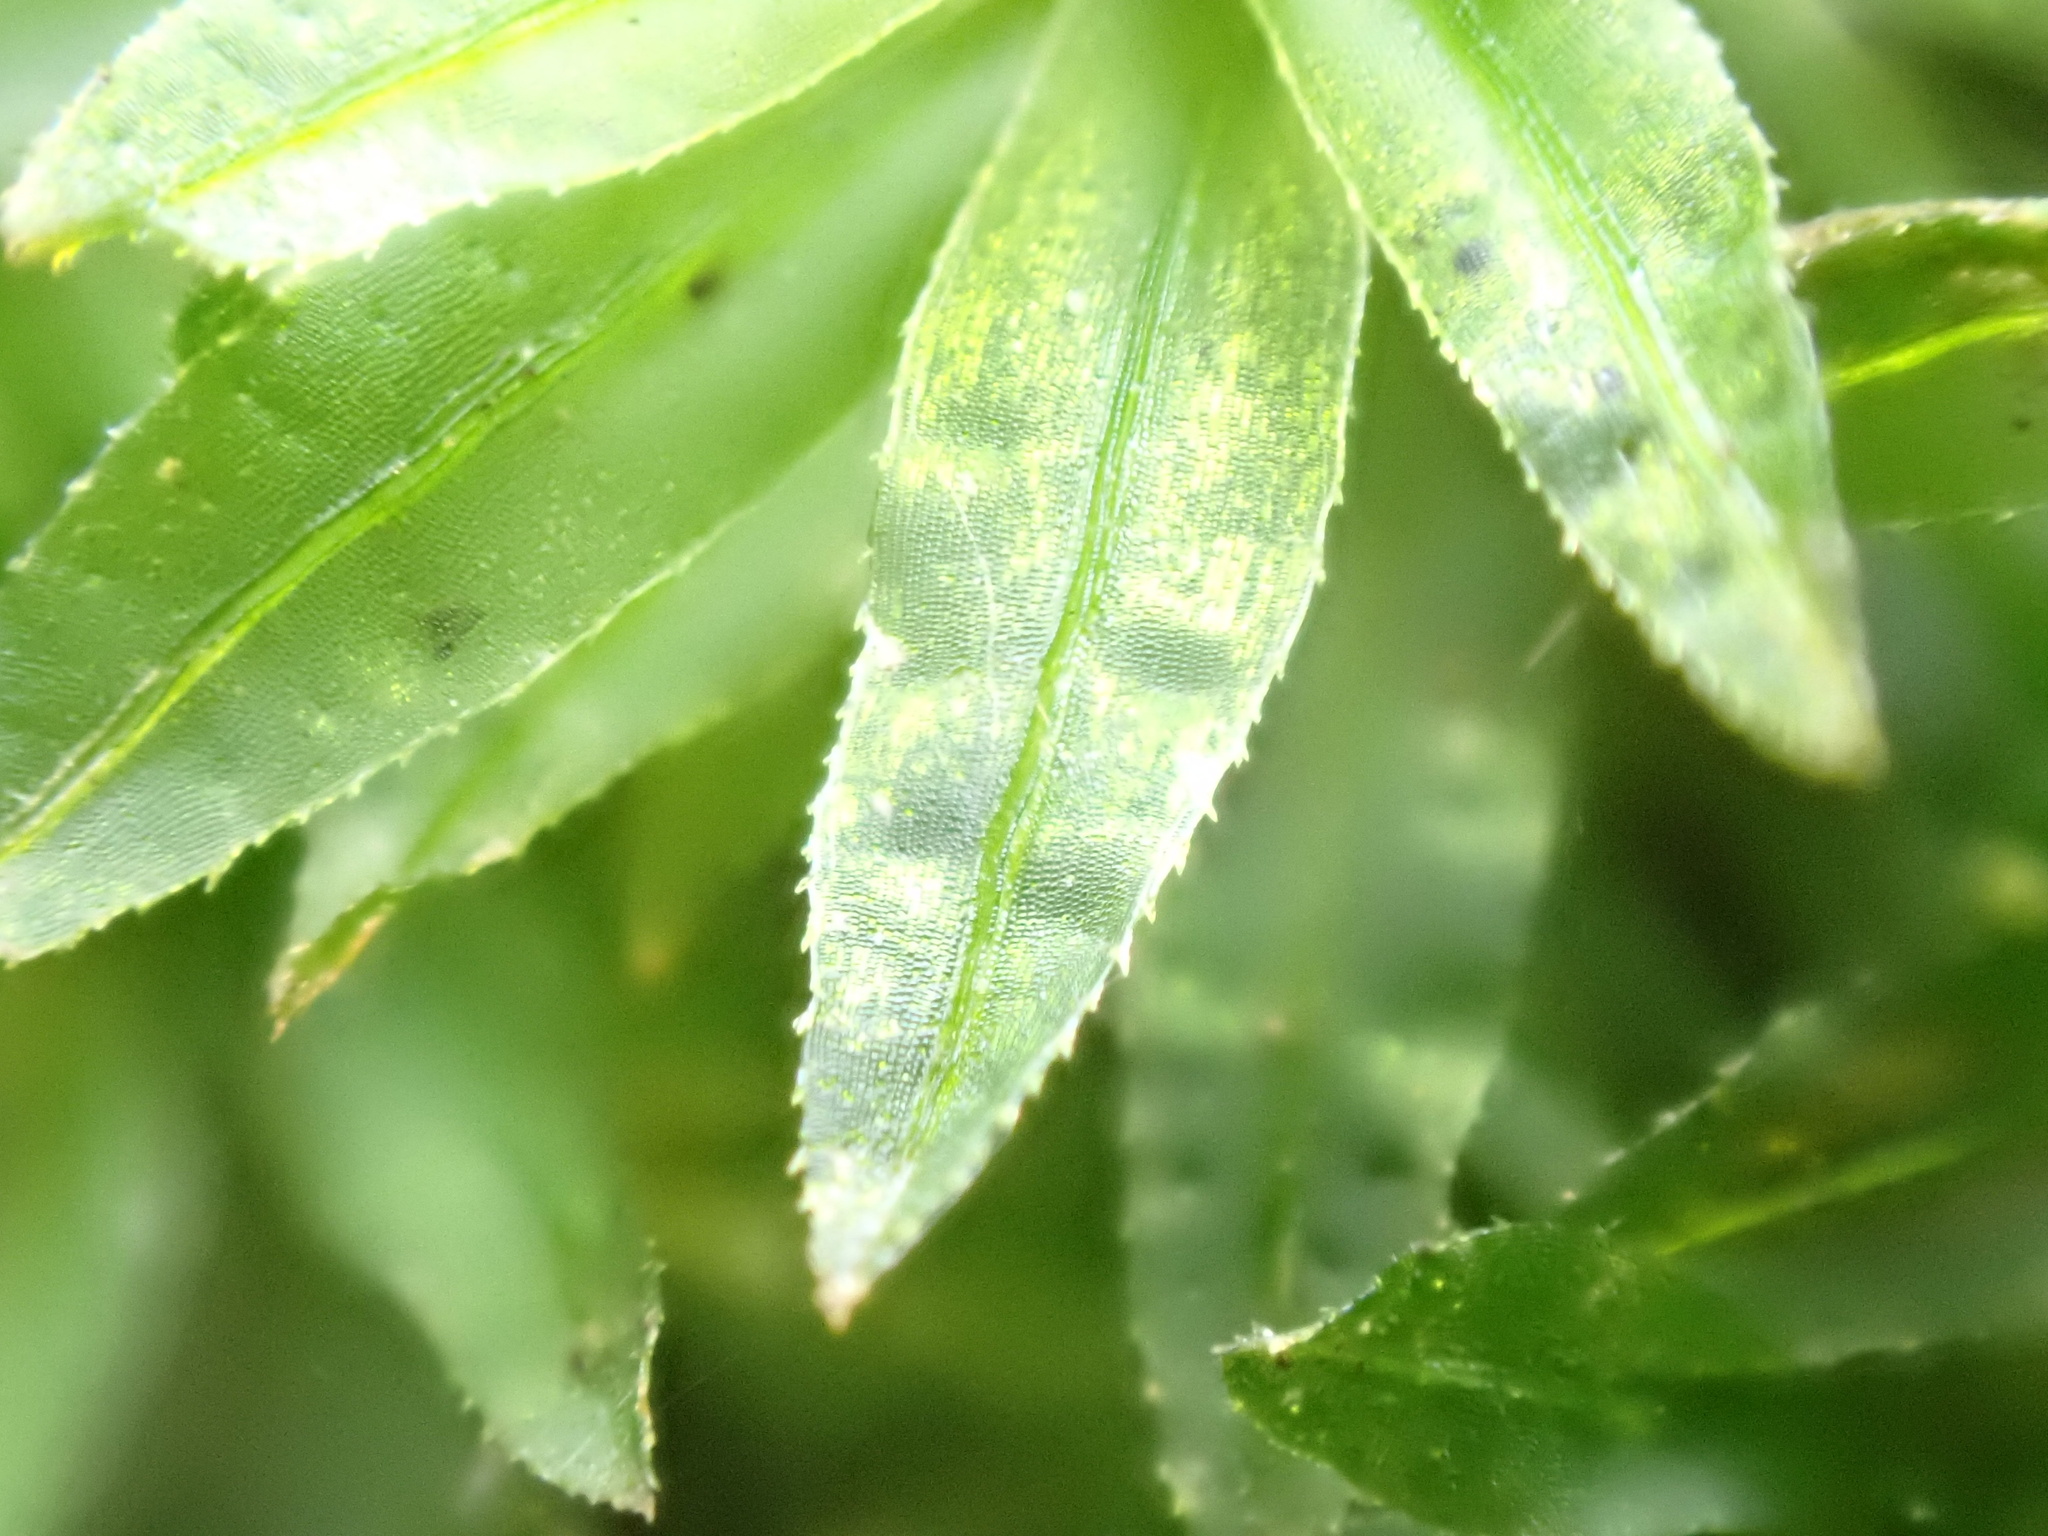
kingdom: Plantae
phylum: Bryophyta
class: Polytrichopsida
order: Polytrichales
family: Polytrichaceae
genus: Atrichum
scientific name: Atrichum undulatum
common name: Common smoothcap
